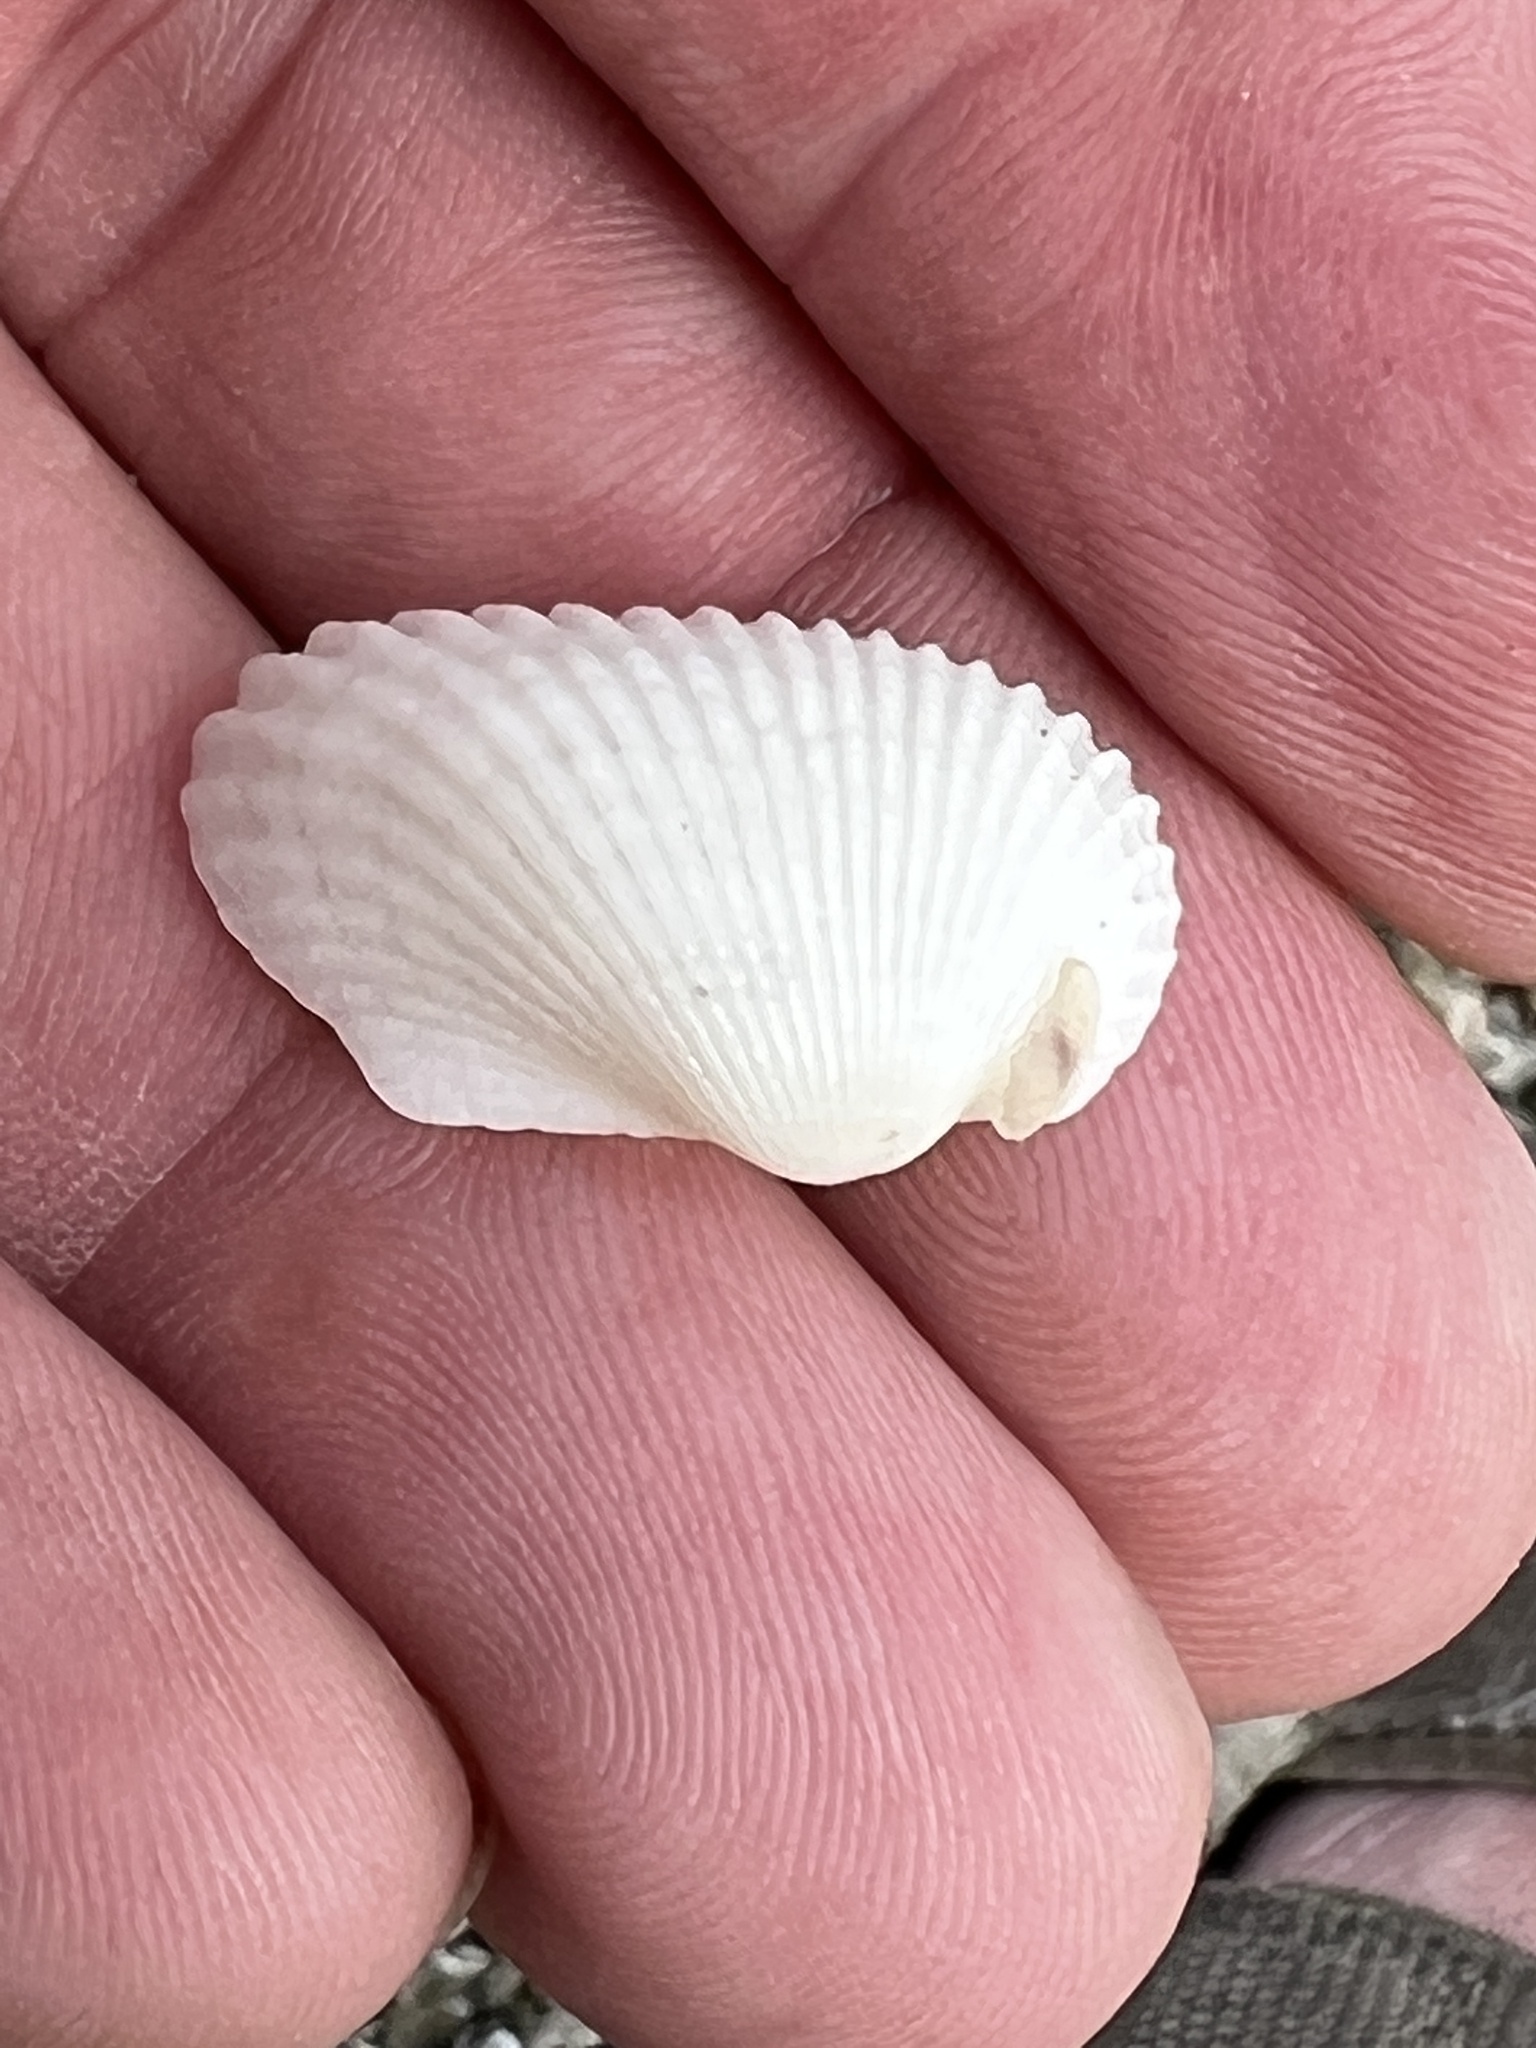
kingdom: Animalia
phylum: Mollusca
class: Bivalvia
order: Arcida
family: Arcidae
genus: Anadara
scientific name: Anadara transversa
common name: Transverse ark
